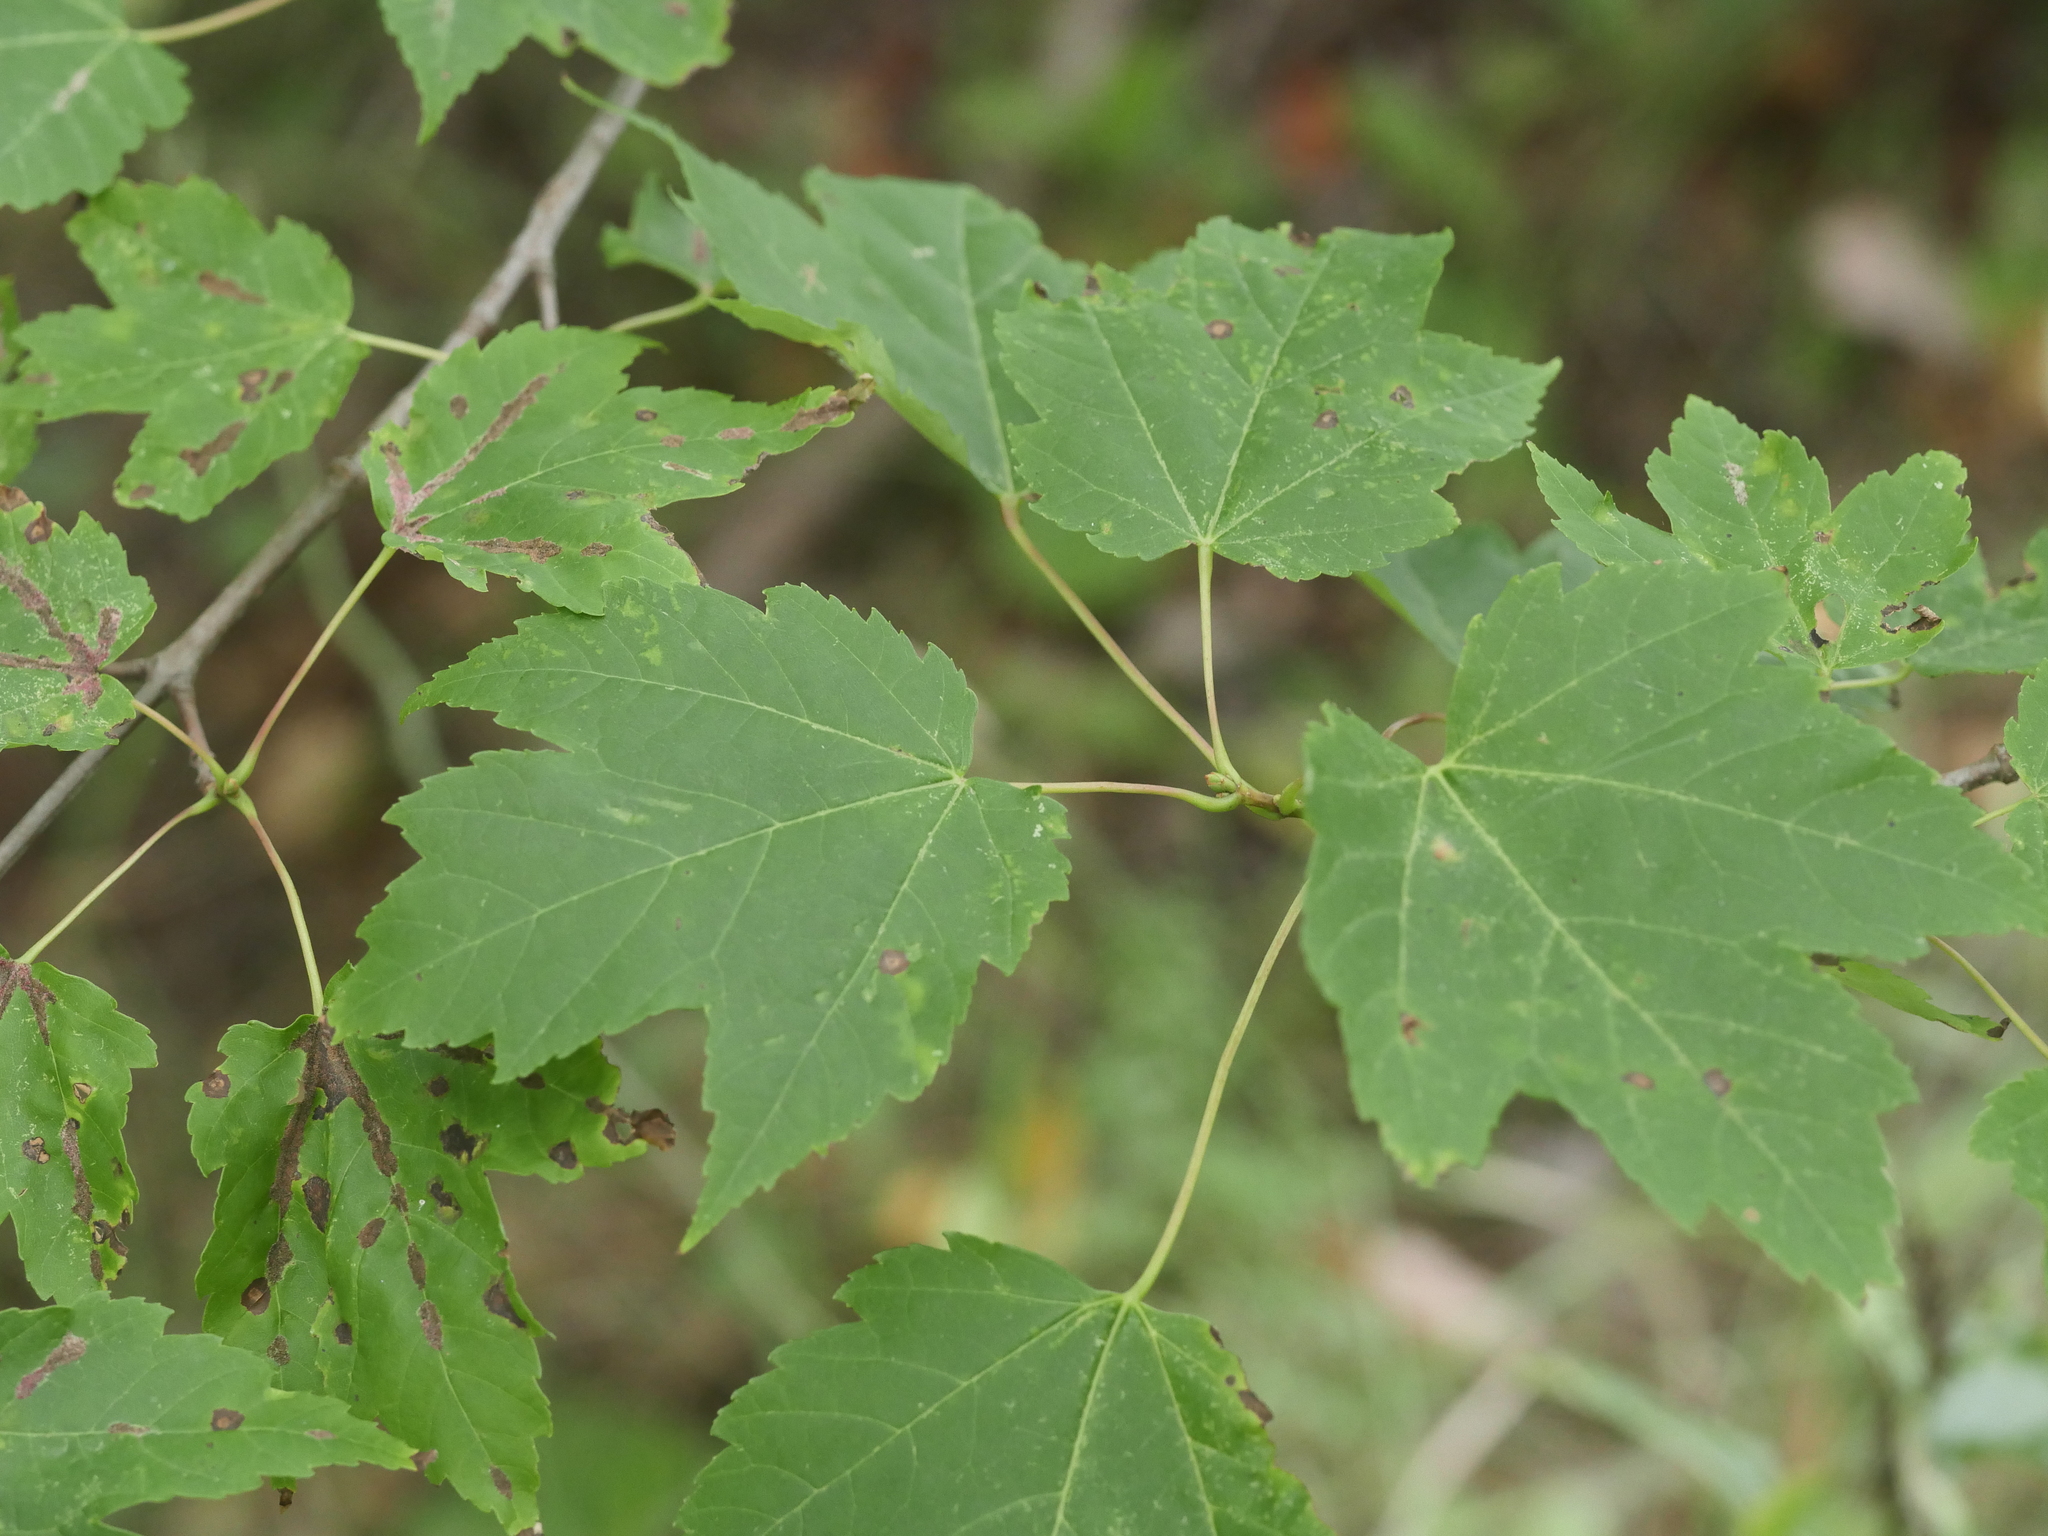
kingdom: Plantae
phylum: Tracheophyta
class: Magnoliopsida
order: Sapindales
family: Sapindaceae
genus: Acer
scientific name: Acer rubrum
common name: Red maple
